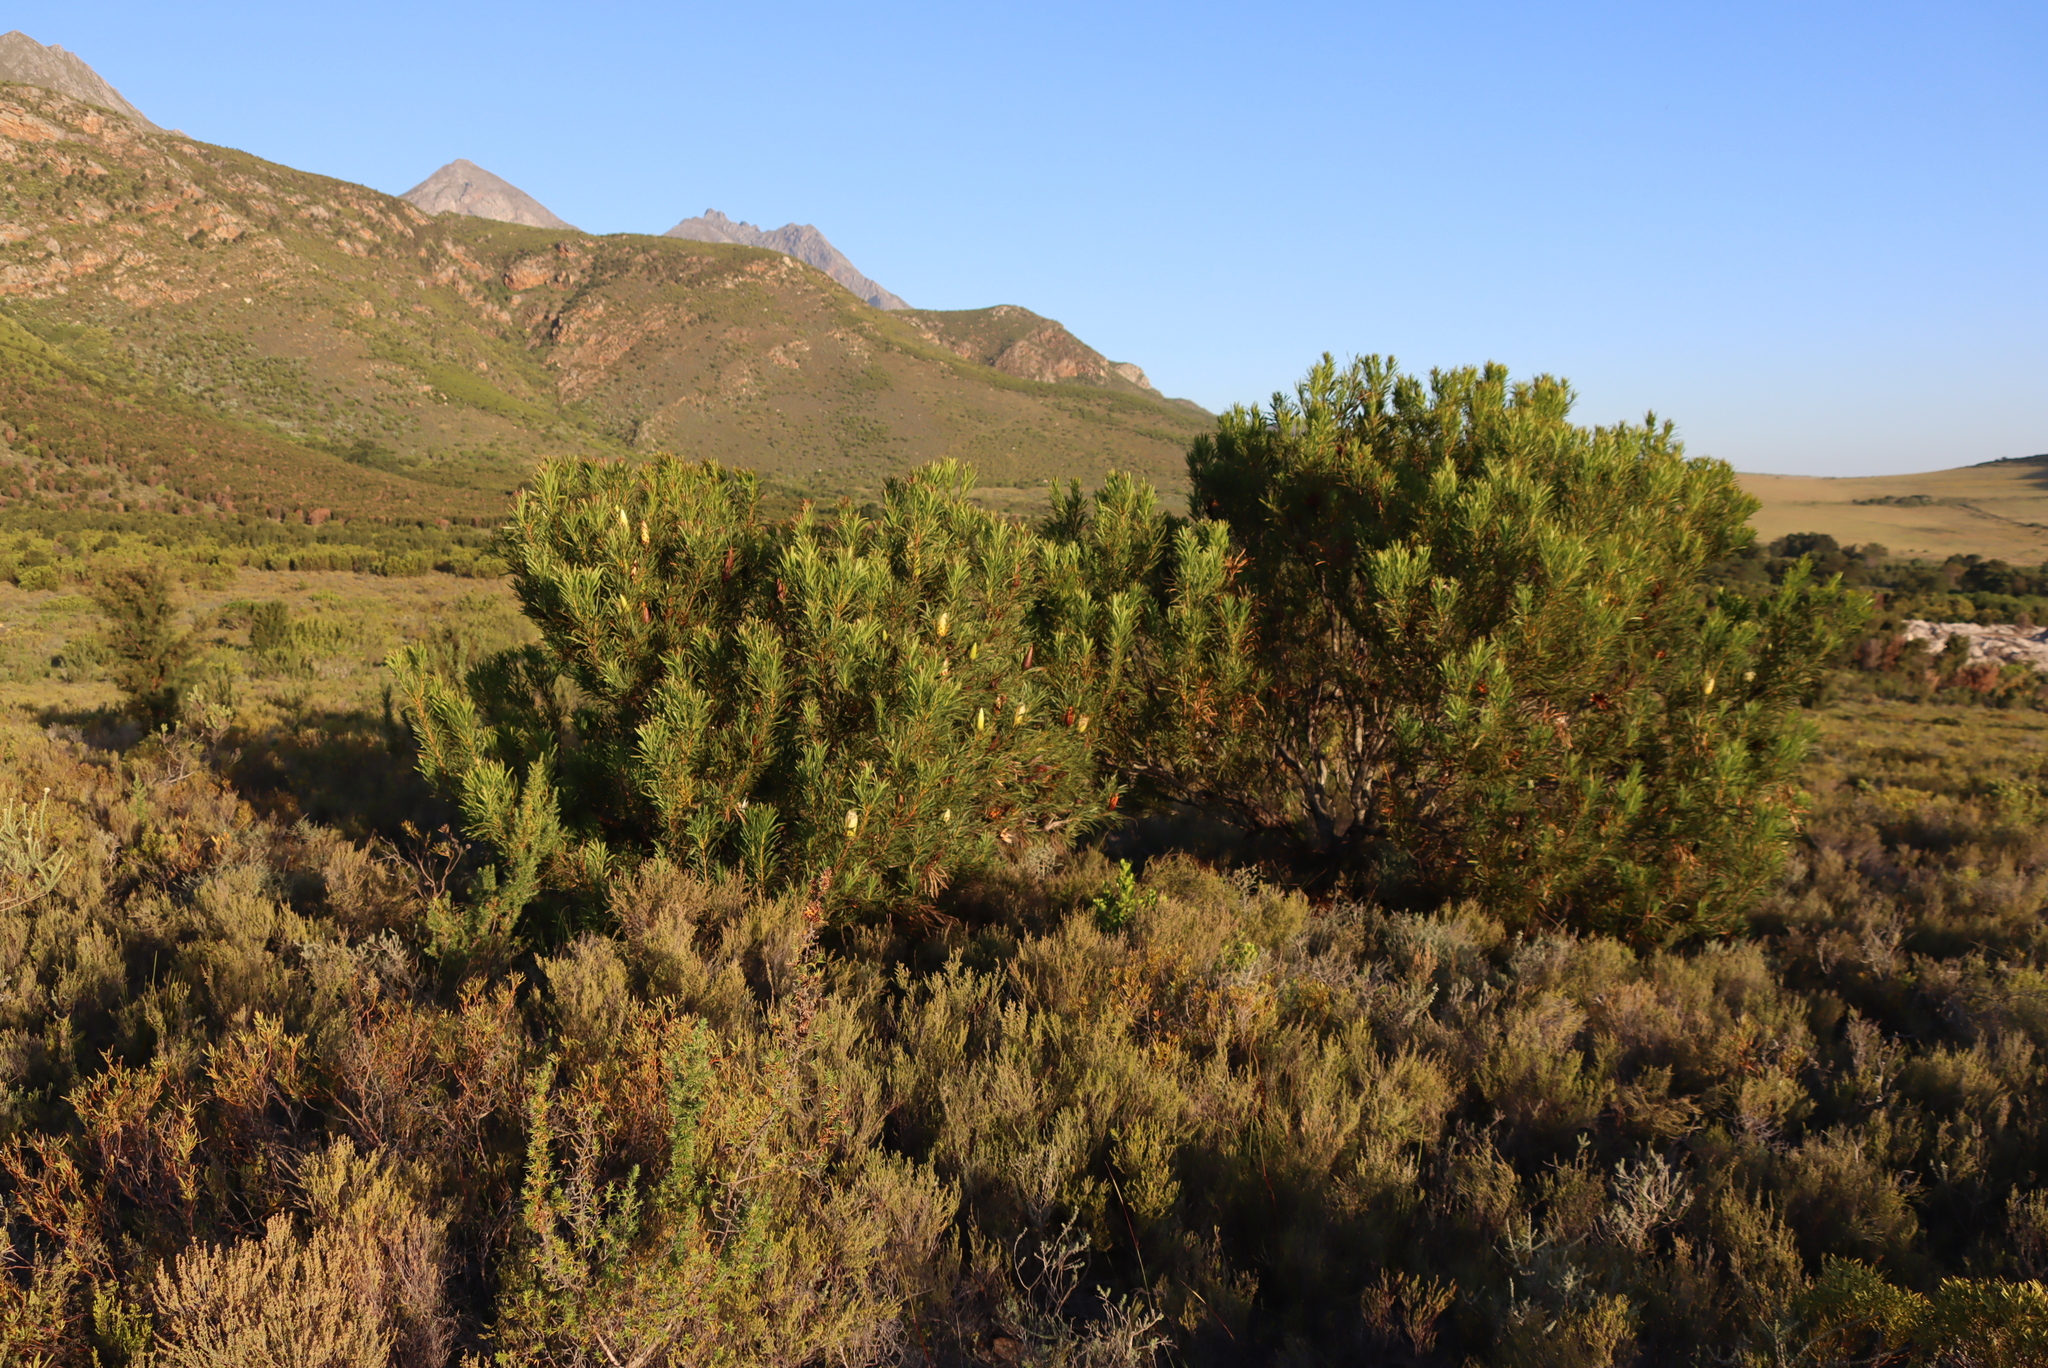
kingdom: Plantae
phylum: Tracheophyta
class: Magnoliopsida
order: Proteales
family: Proteaceae
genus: Protea
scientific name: Protea repens
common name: Sugarbush
